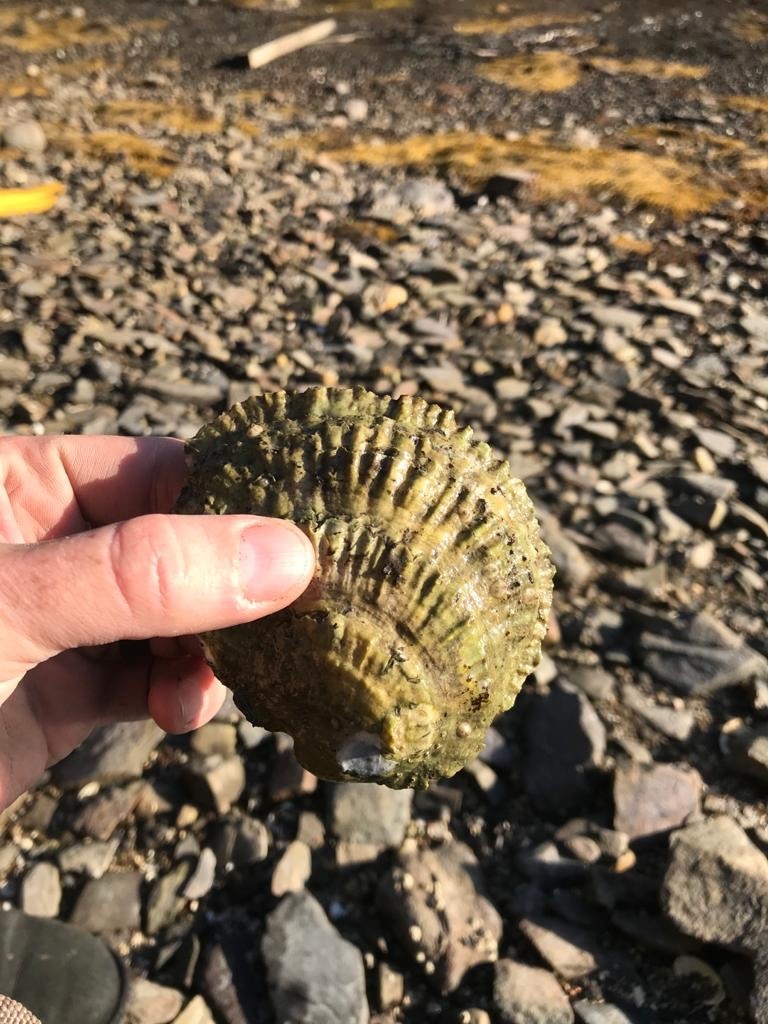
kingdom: Animalia
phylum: Mollusca
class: Bivalvia
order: Ostreida
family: Ostreidae
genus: Ostrea
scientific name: Ostrea edulis
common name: Flat oyster
